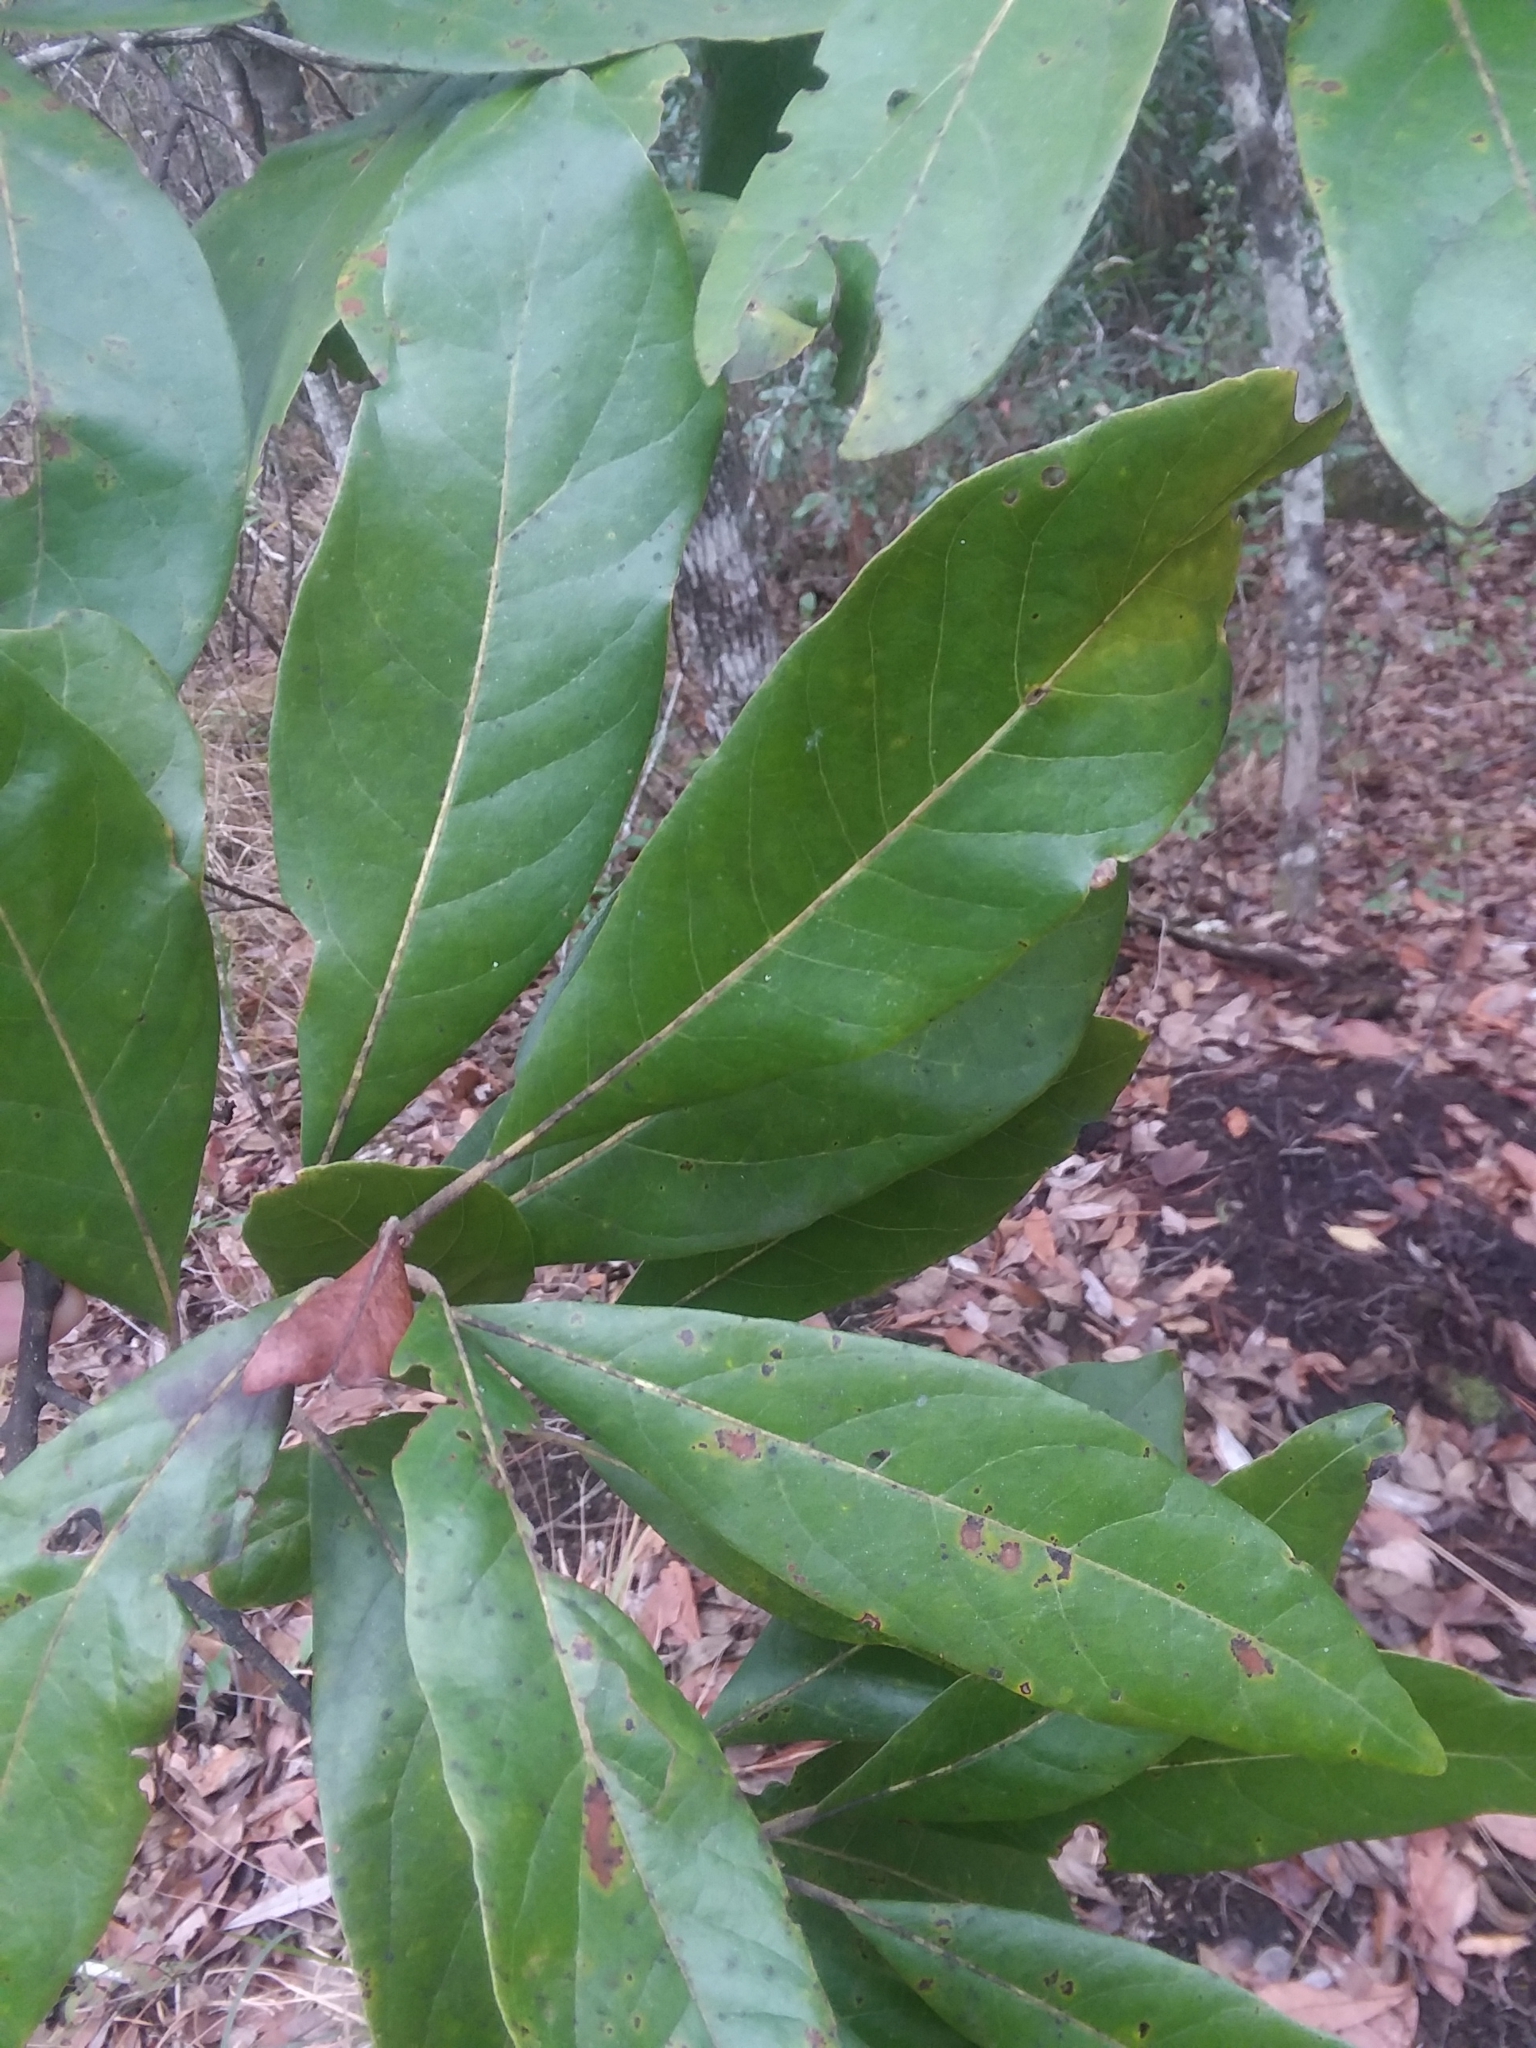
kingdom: Plantae
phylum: Tracheophyta
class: Magnoliopsida
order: Laurales
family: Lauraceae
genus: Persea
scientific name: Persea palustris
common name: Swampbay
